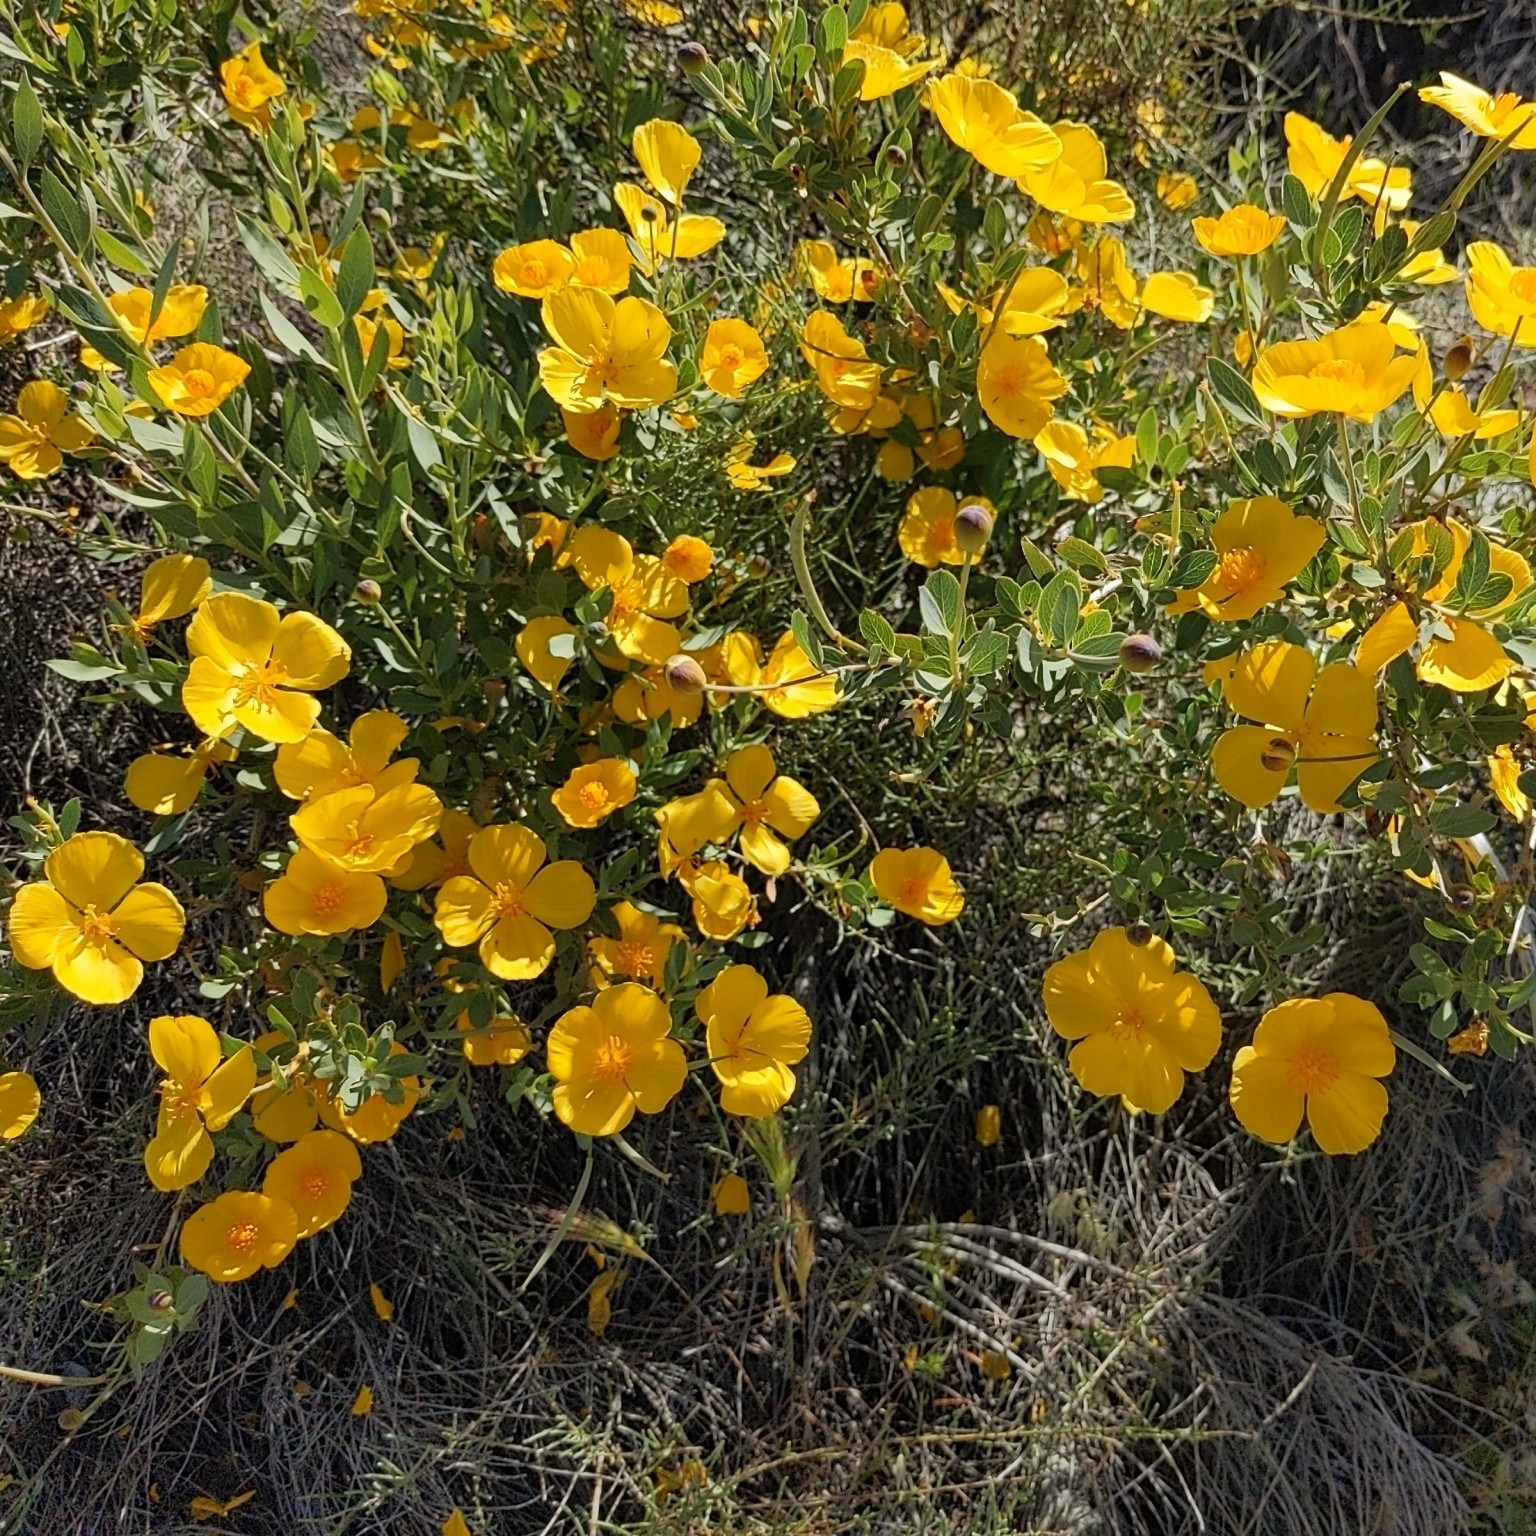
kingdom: Plantae
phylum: Tracheophyta
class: Magnoliopsida
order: Ranunculales
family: Papaveraceae
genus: Dendromecon
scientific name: Dendromecon rigida
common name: Tree poppy
